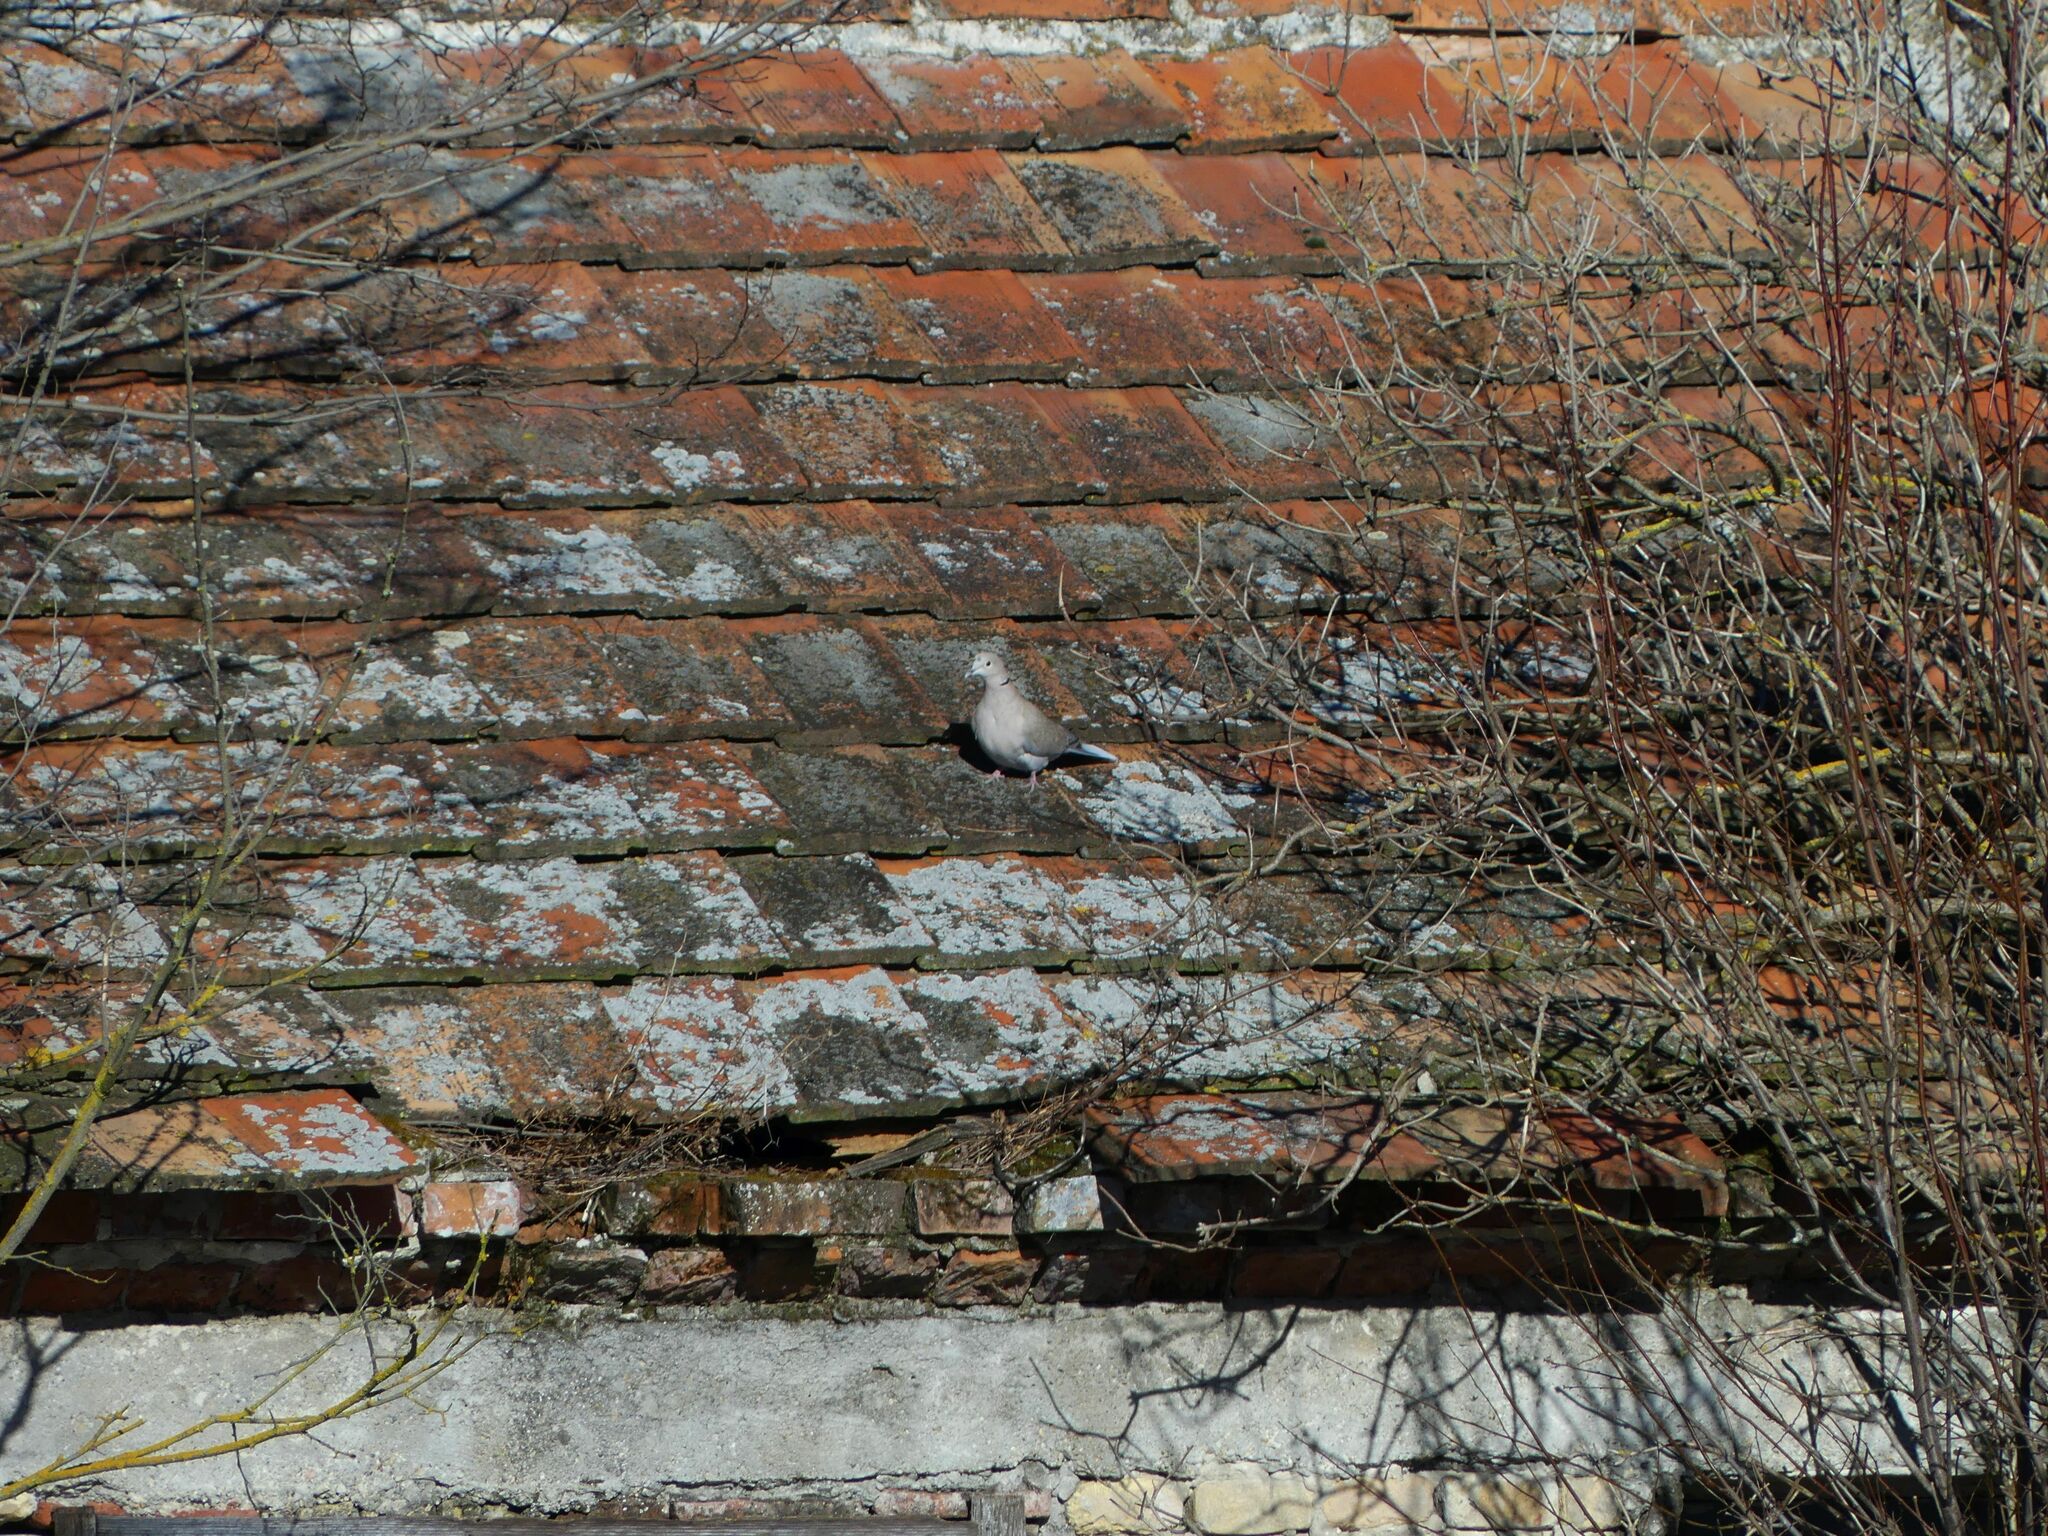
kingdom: Animalia
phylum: Chordata
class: Aves
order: Columbiformes
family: Columbidae
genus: Streptopelia
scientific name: Streptopelia decaocto
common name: Eurasian collared dove
